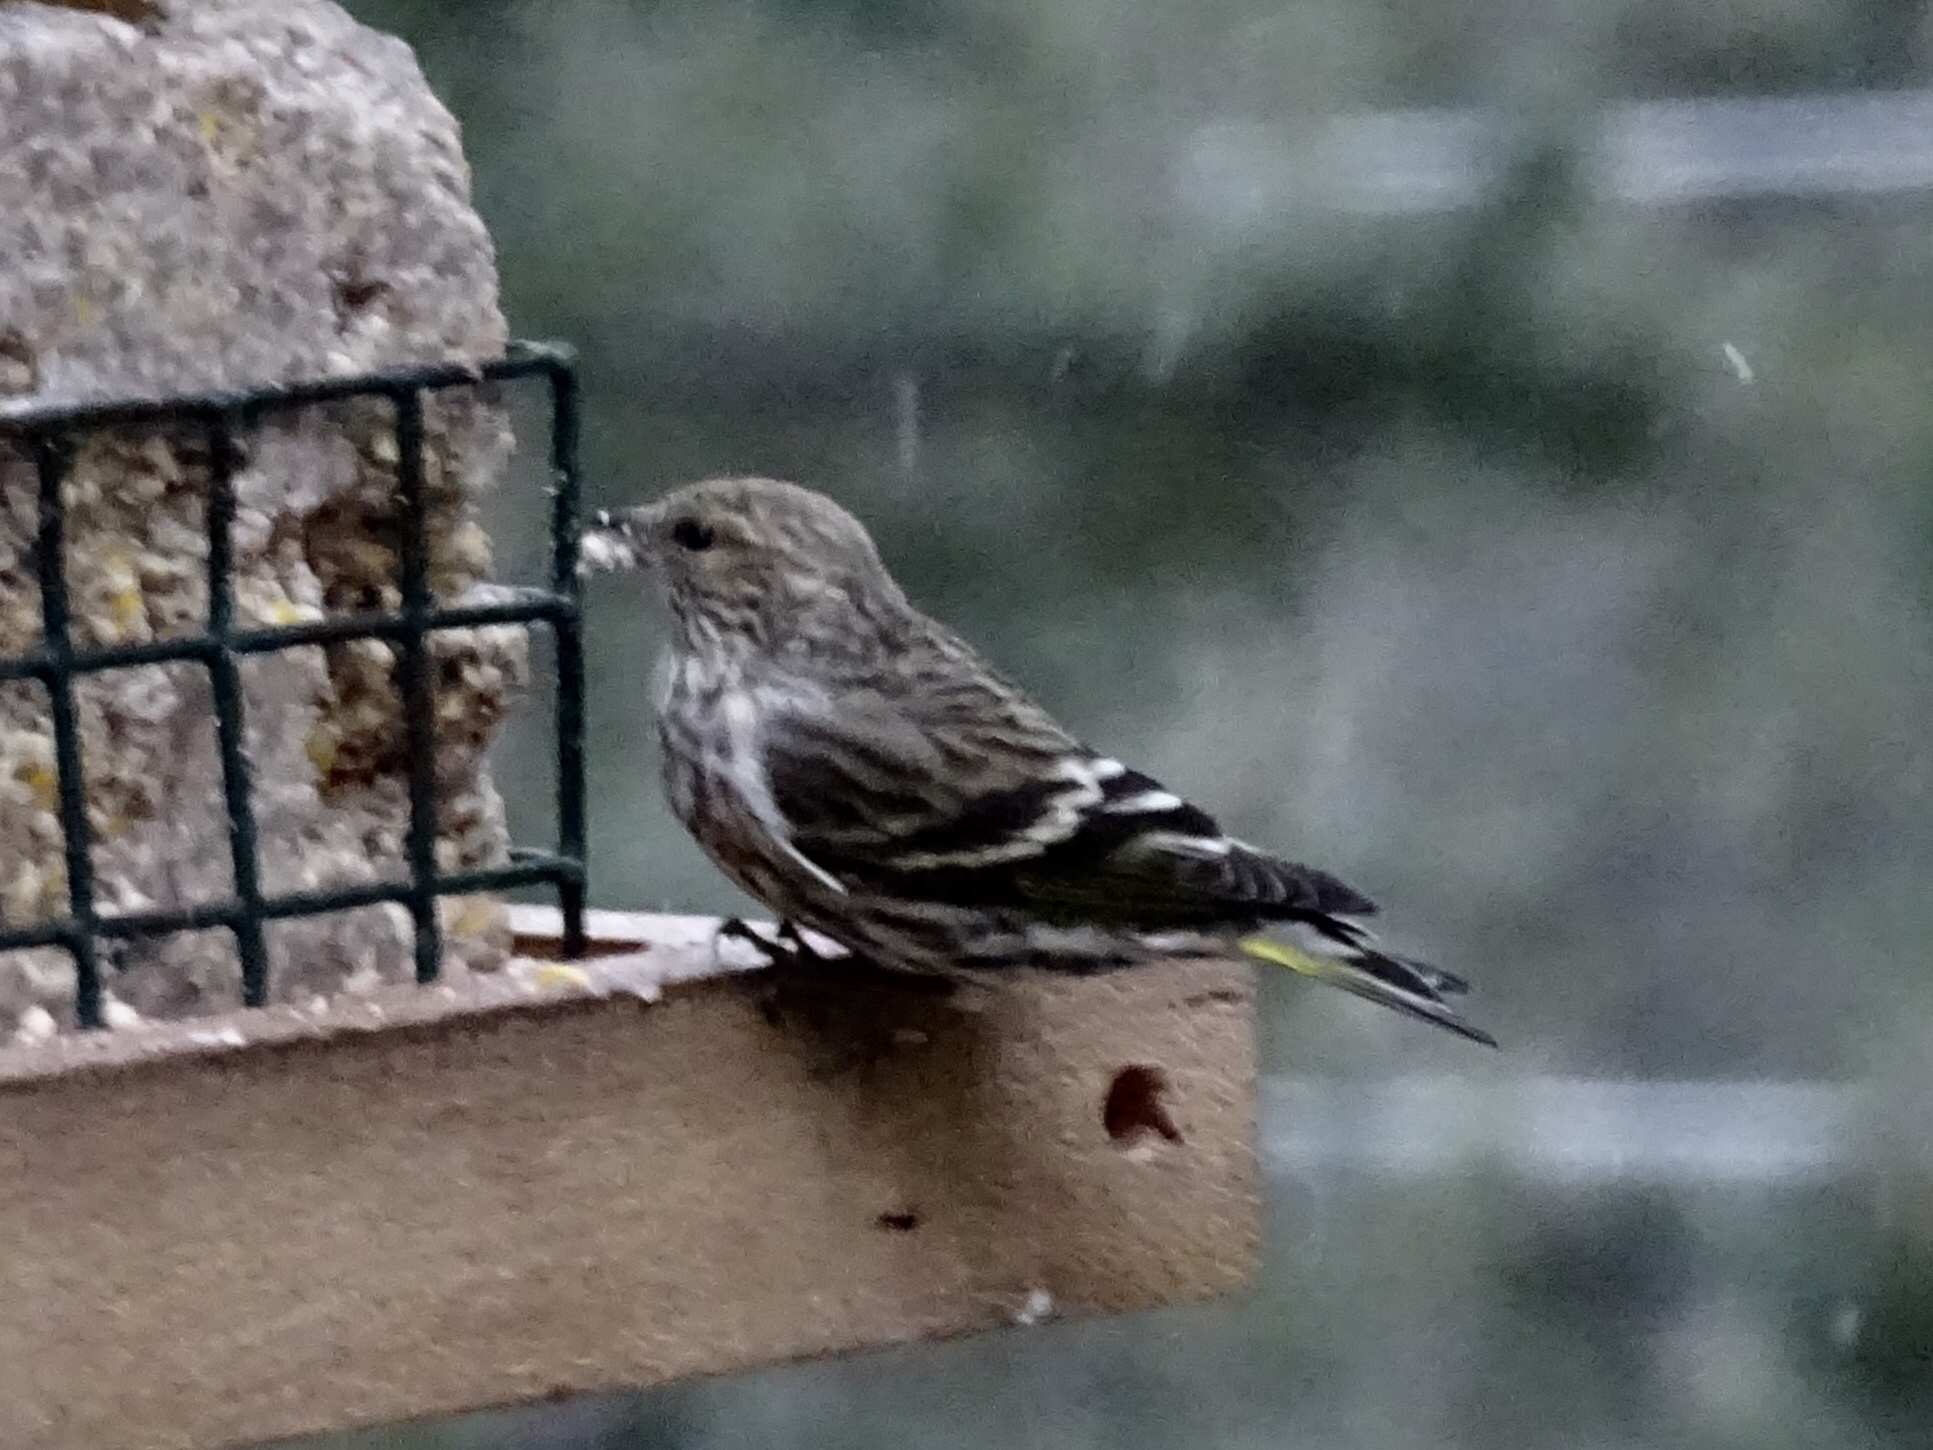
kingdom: Animalia
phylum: Chordata
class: Aves
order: Passeriformes
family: Fringillidae
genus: Spinus
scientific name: Spinus pinus
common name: Pine siskin
